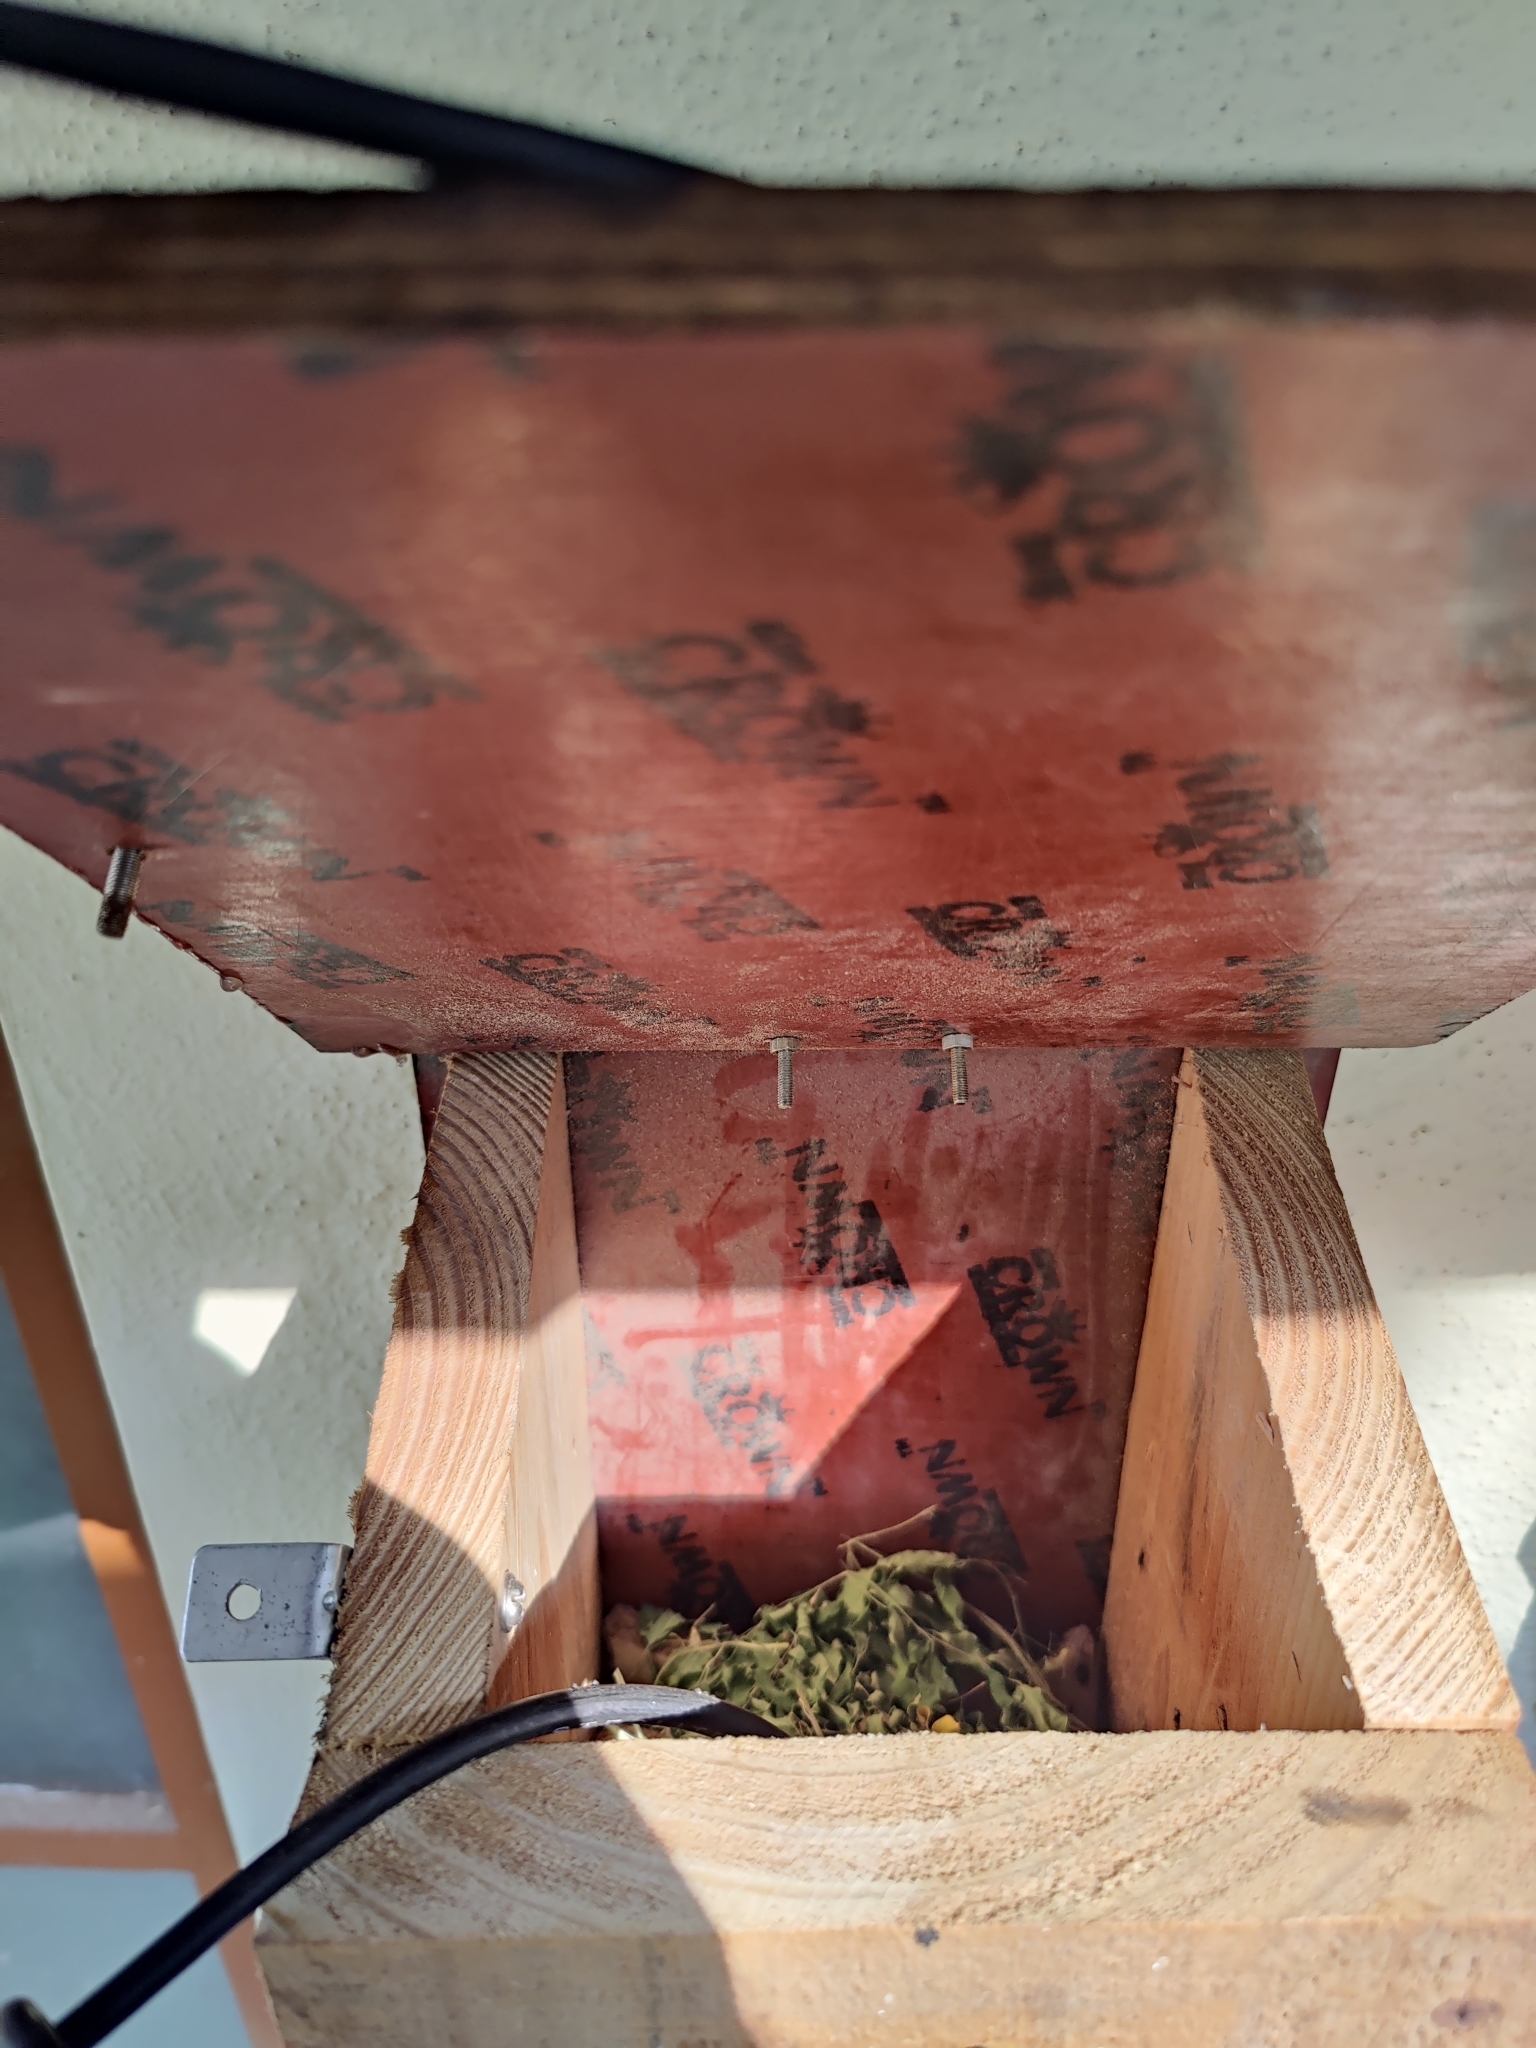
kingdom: Animalia
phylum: Chordata
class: Mammalia
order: Rodentia
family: Muridae
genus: Vandeleuria
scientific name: Vandeleuria oleracea
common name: Indomalayan vandeleuria
